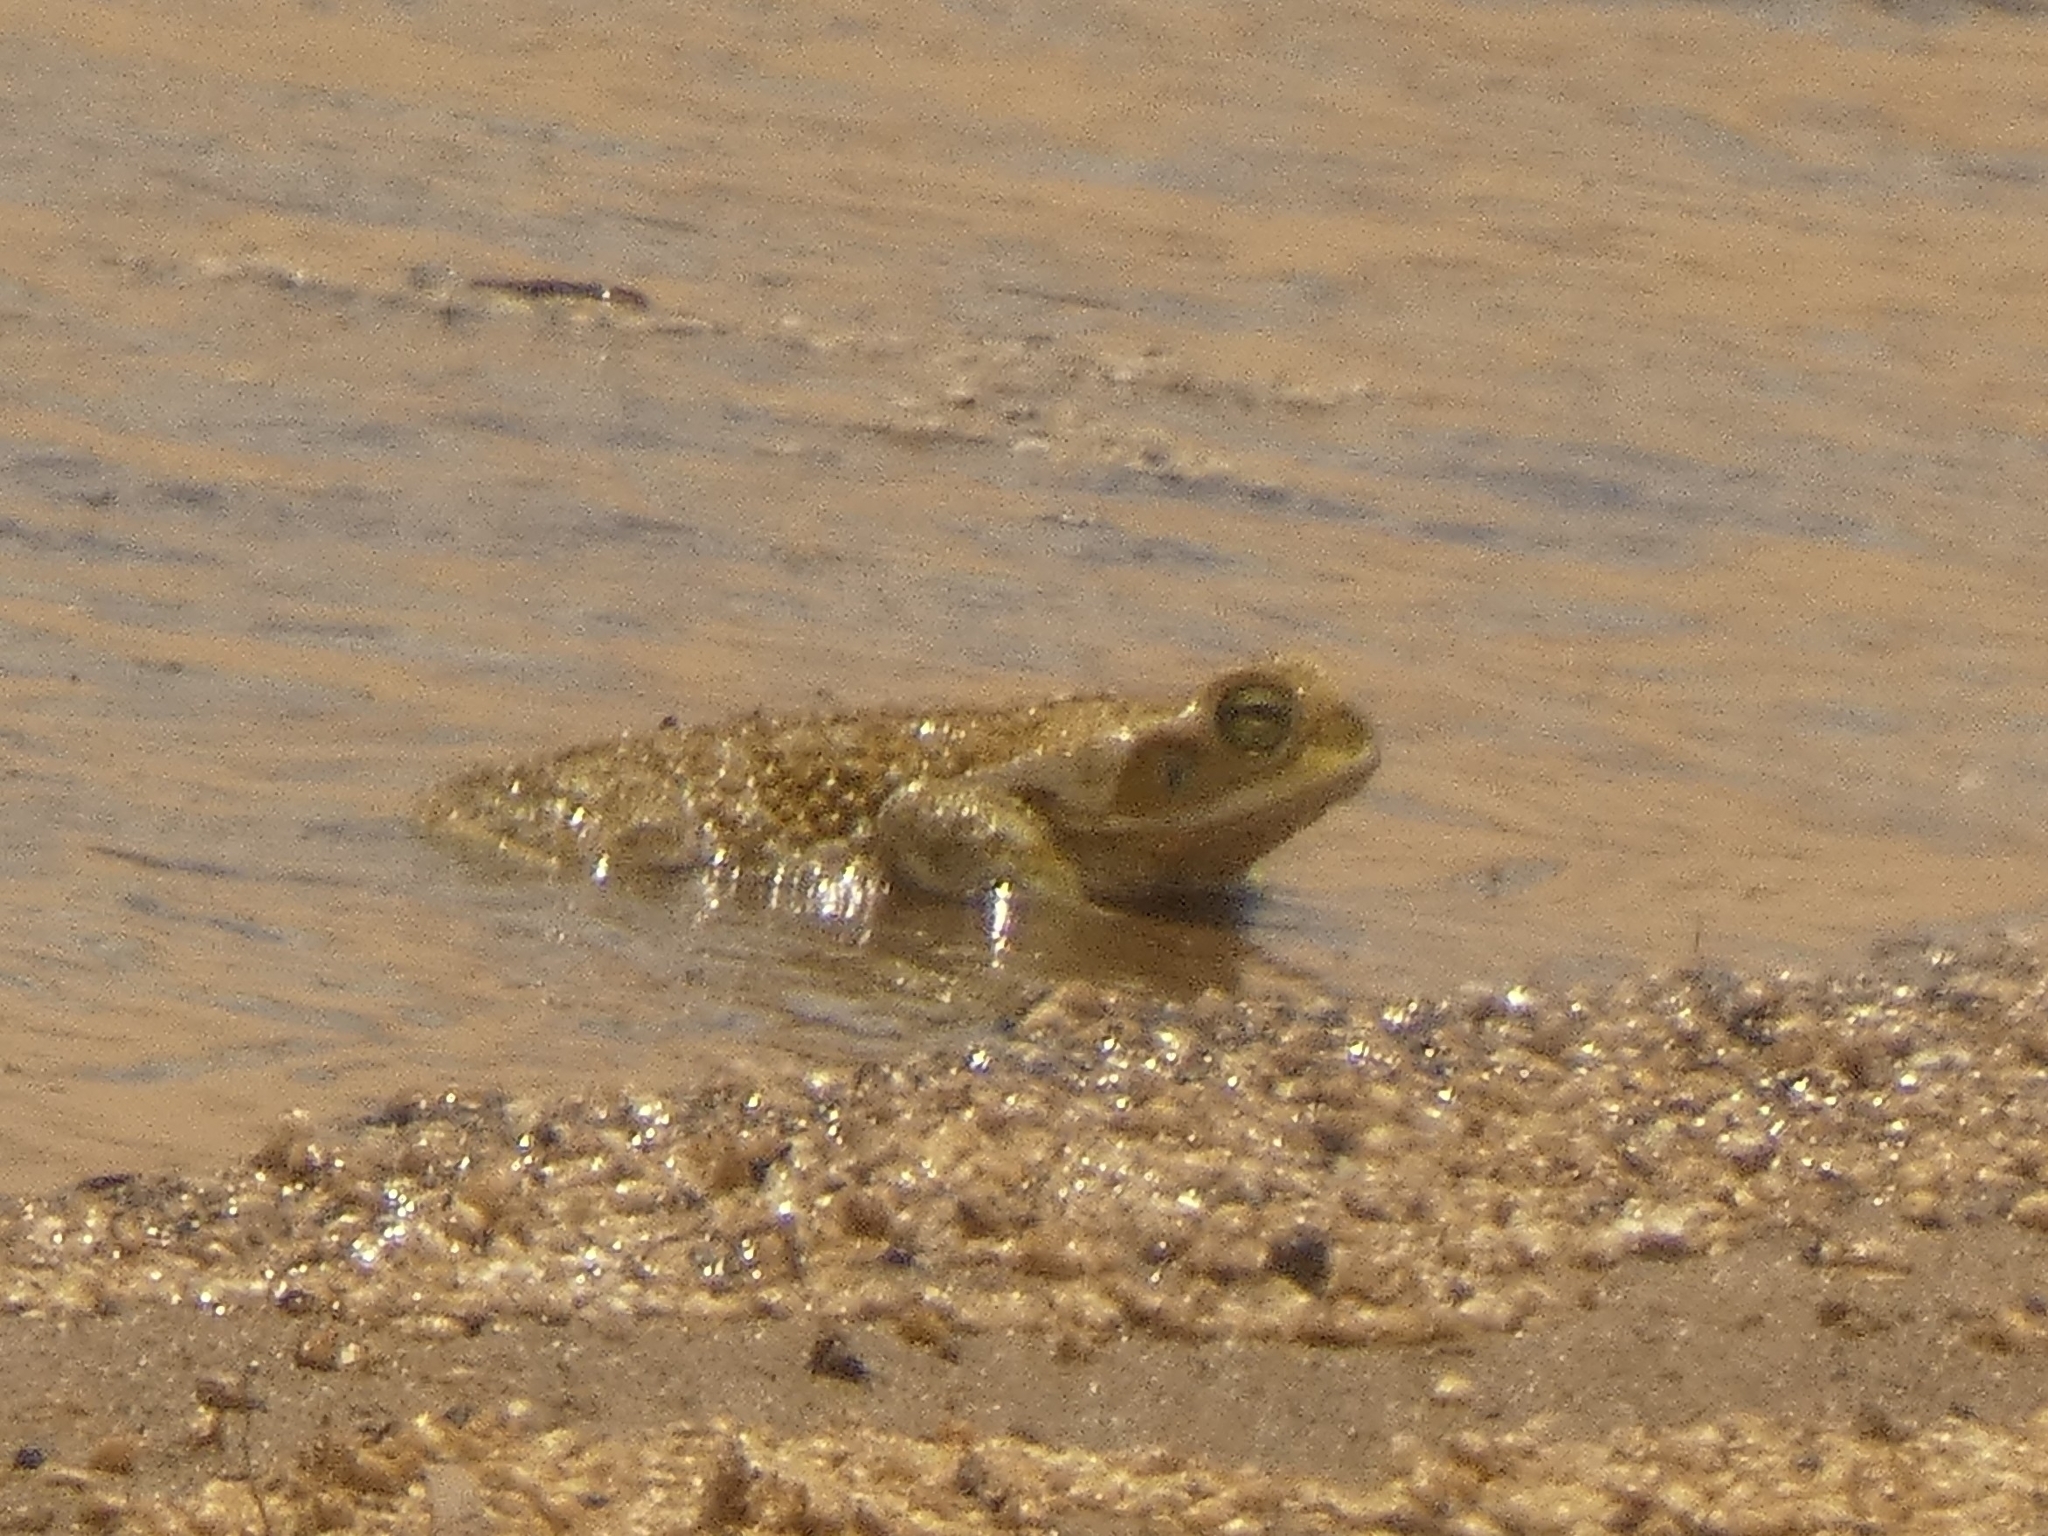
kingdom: Animalia
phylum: Chordata
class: Amphibia
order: Anura
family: Bufonidae
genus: Rhinella
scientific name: Rhinella arenarum
